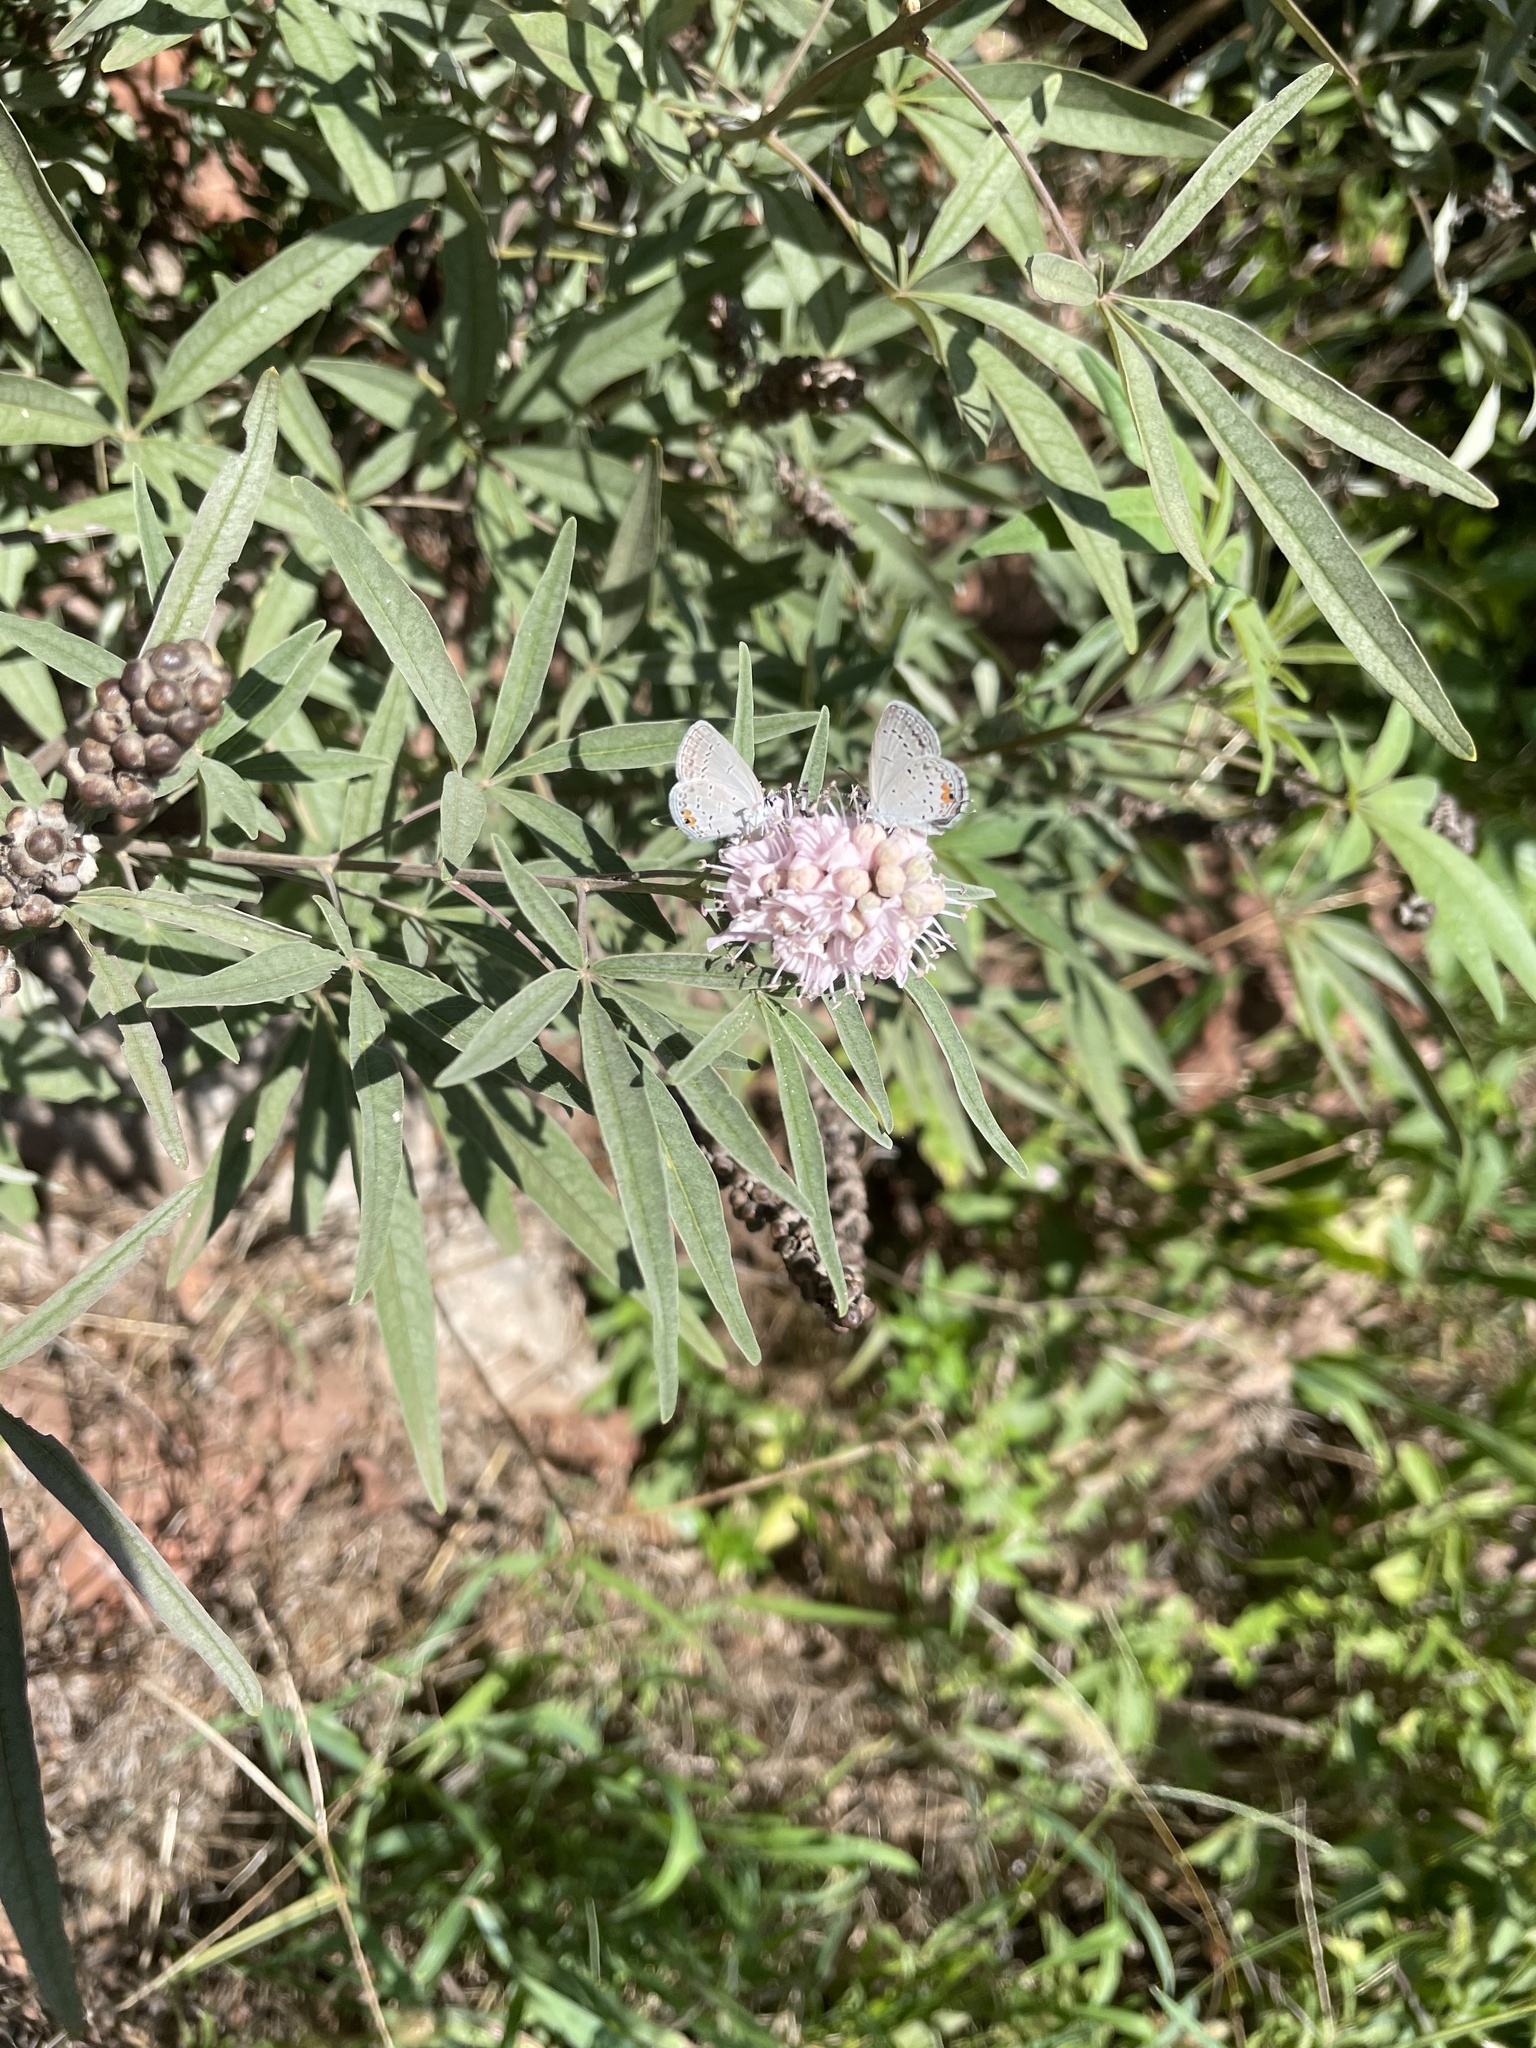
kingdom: Animalia
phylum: Arthropoda
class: Insecta
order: Lepidoptera
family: Lycaenidae
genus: Elkalyce
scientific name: Elkalyce comyntas
